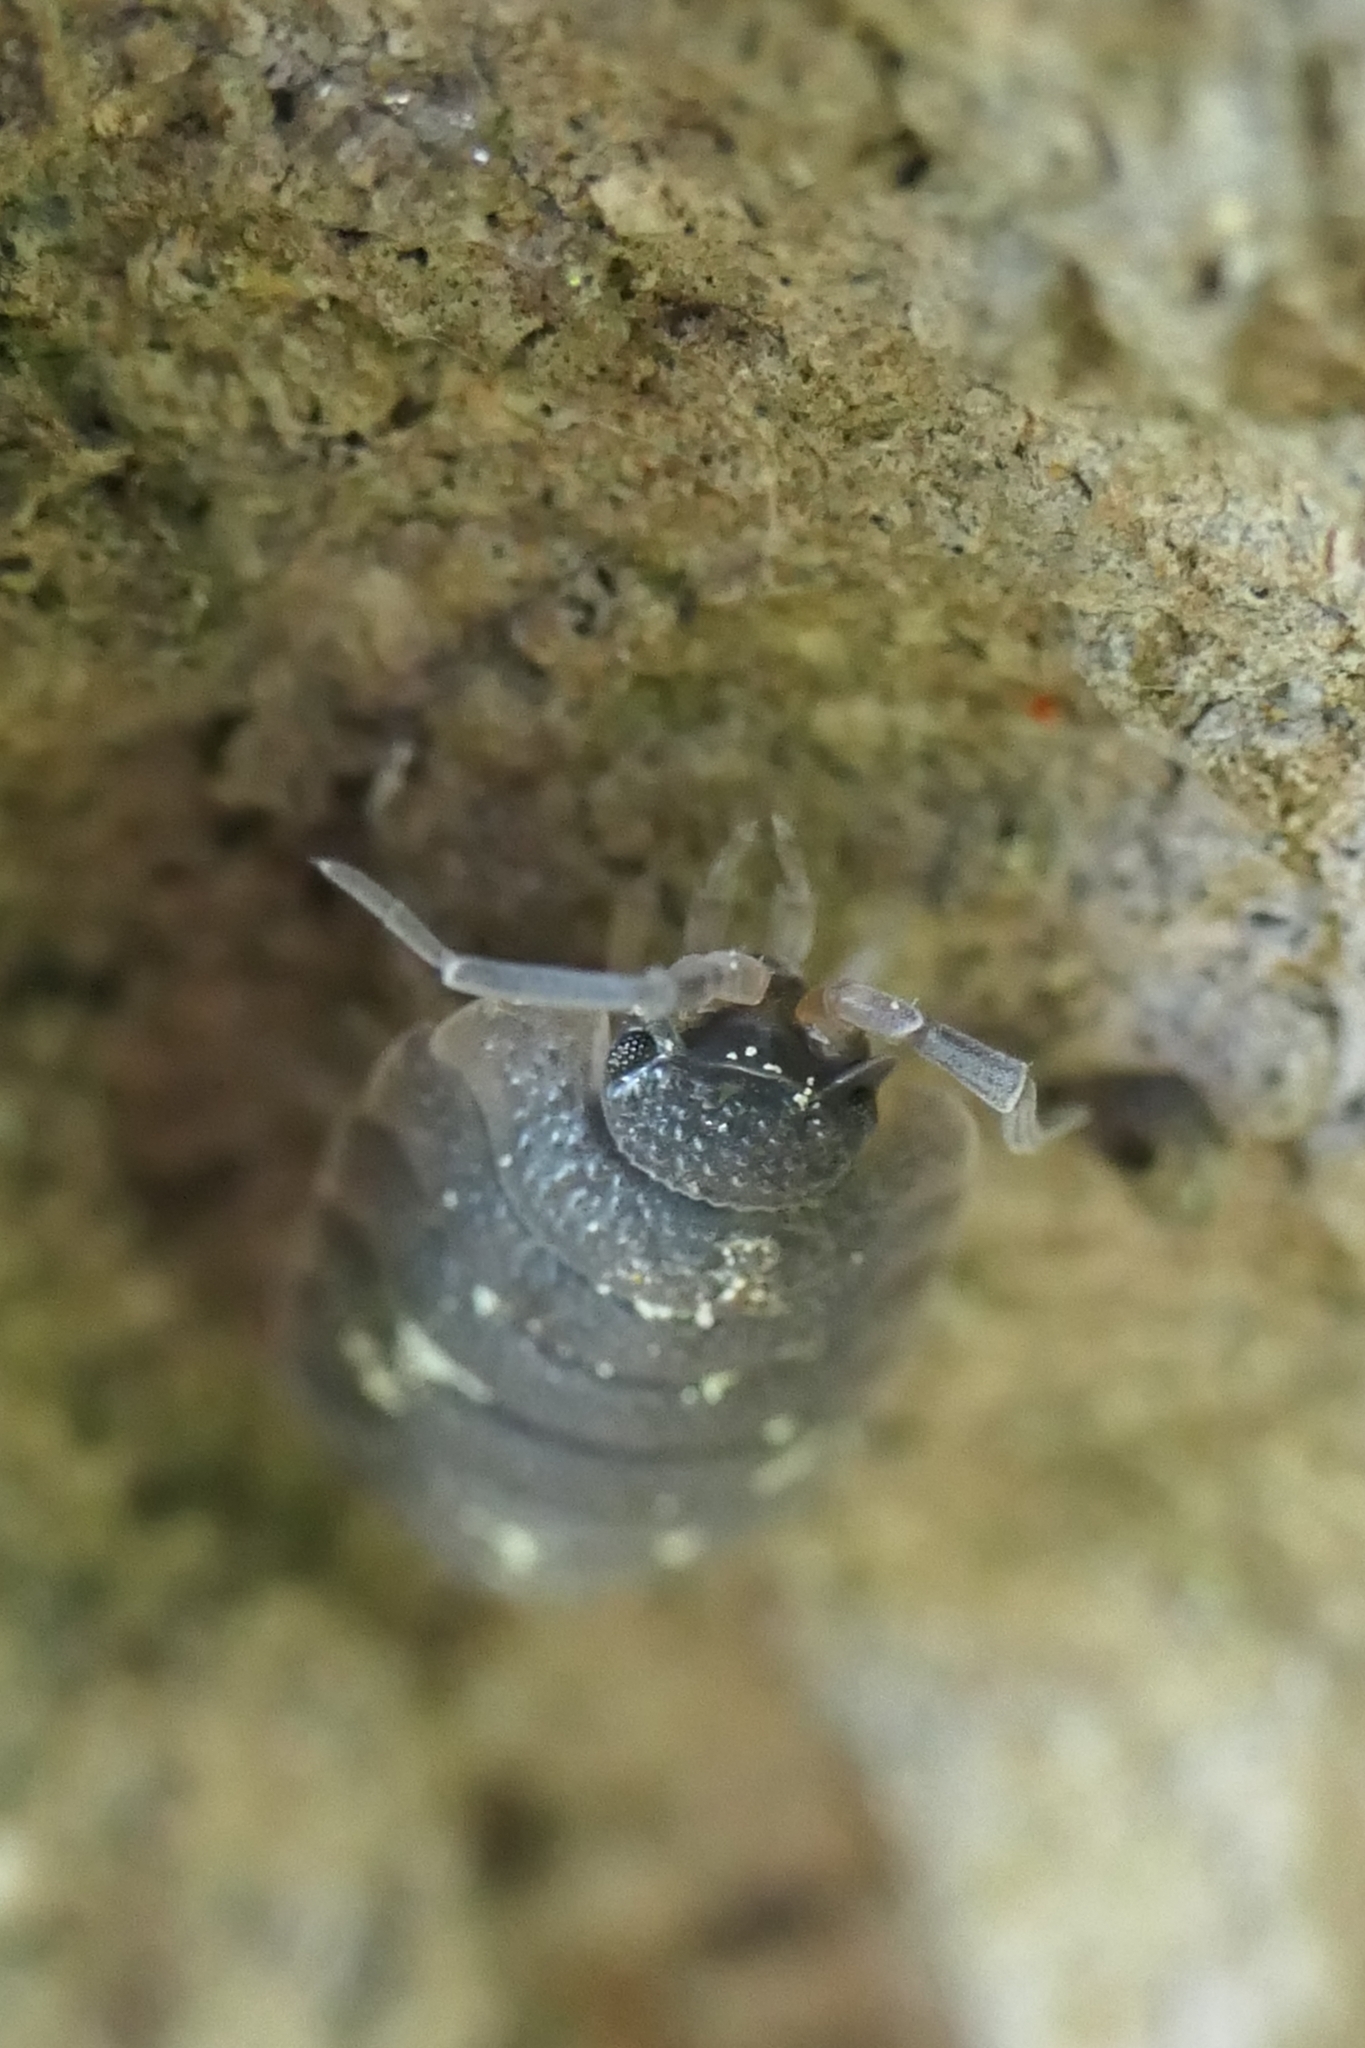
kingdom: Animalia
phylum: Arthropoda
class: Malacostraca
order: Isopoda
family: Porcellionidae
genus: Porcellio
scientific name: Porcellio scaber
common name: Common rough woodlouse
